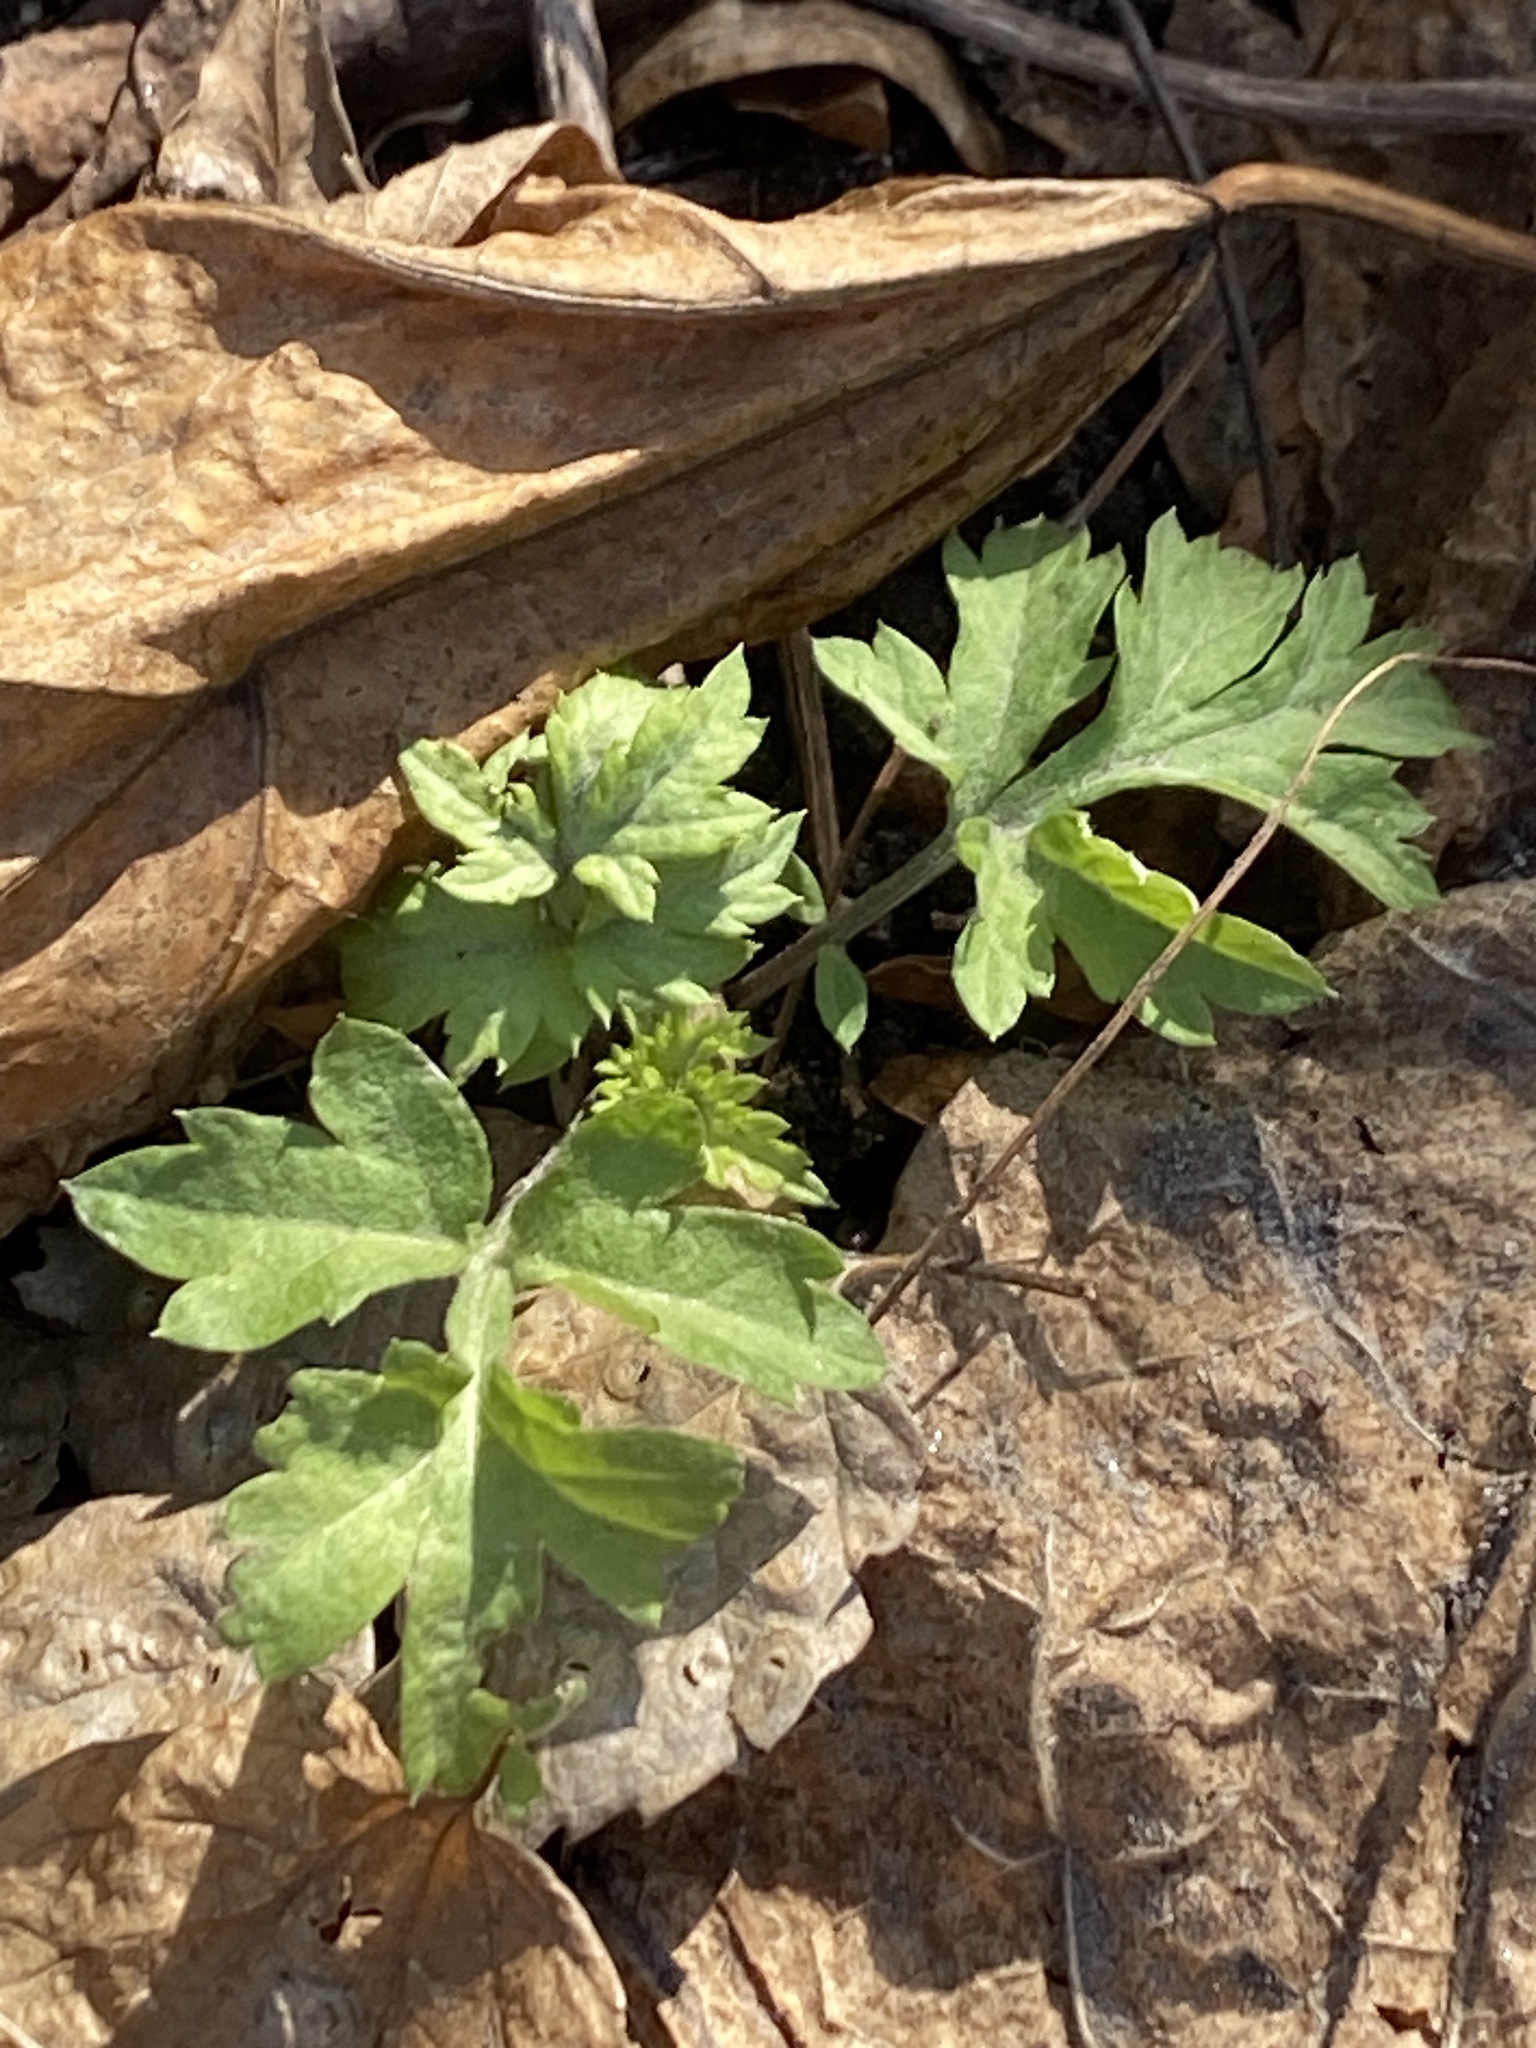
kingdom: Plantae
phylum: Tracheophyta
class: Magnoliopsida
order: Asterales
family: Asteraceae
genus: Artemisia
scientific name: Artemisia vulgaris
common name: Mugwort
